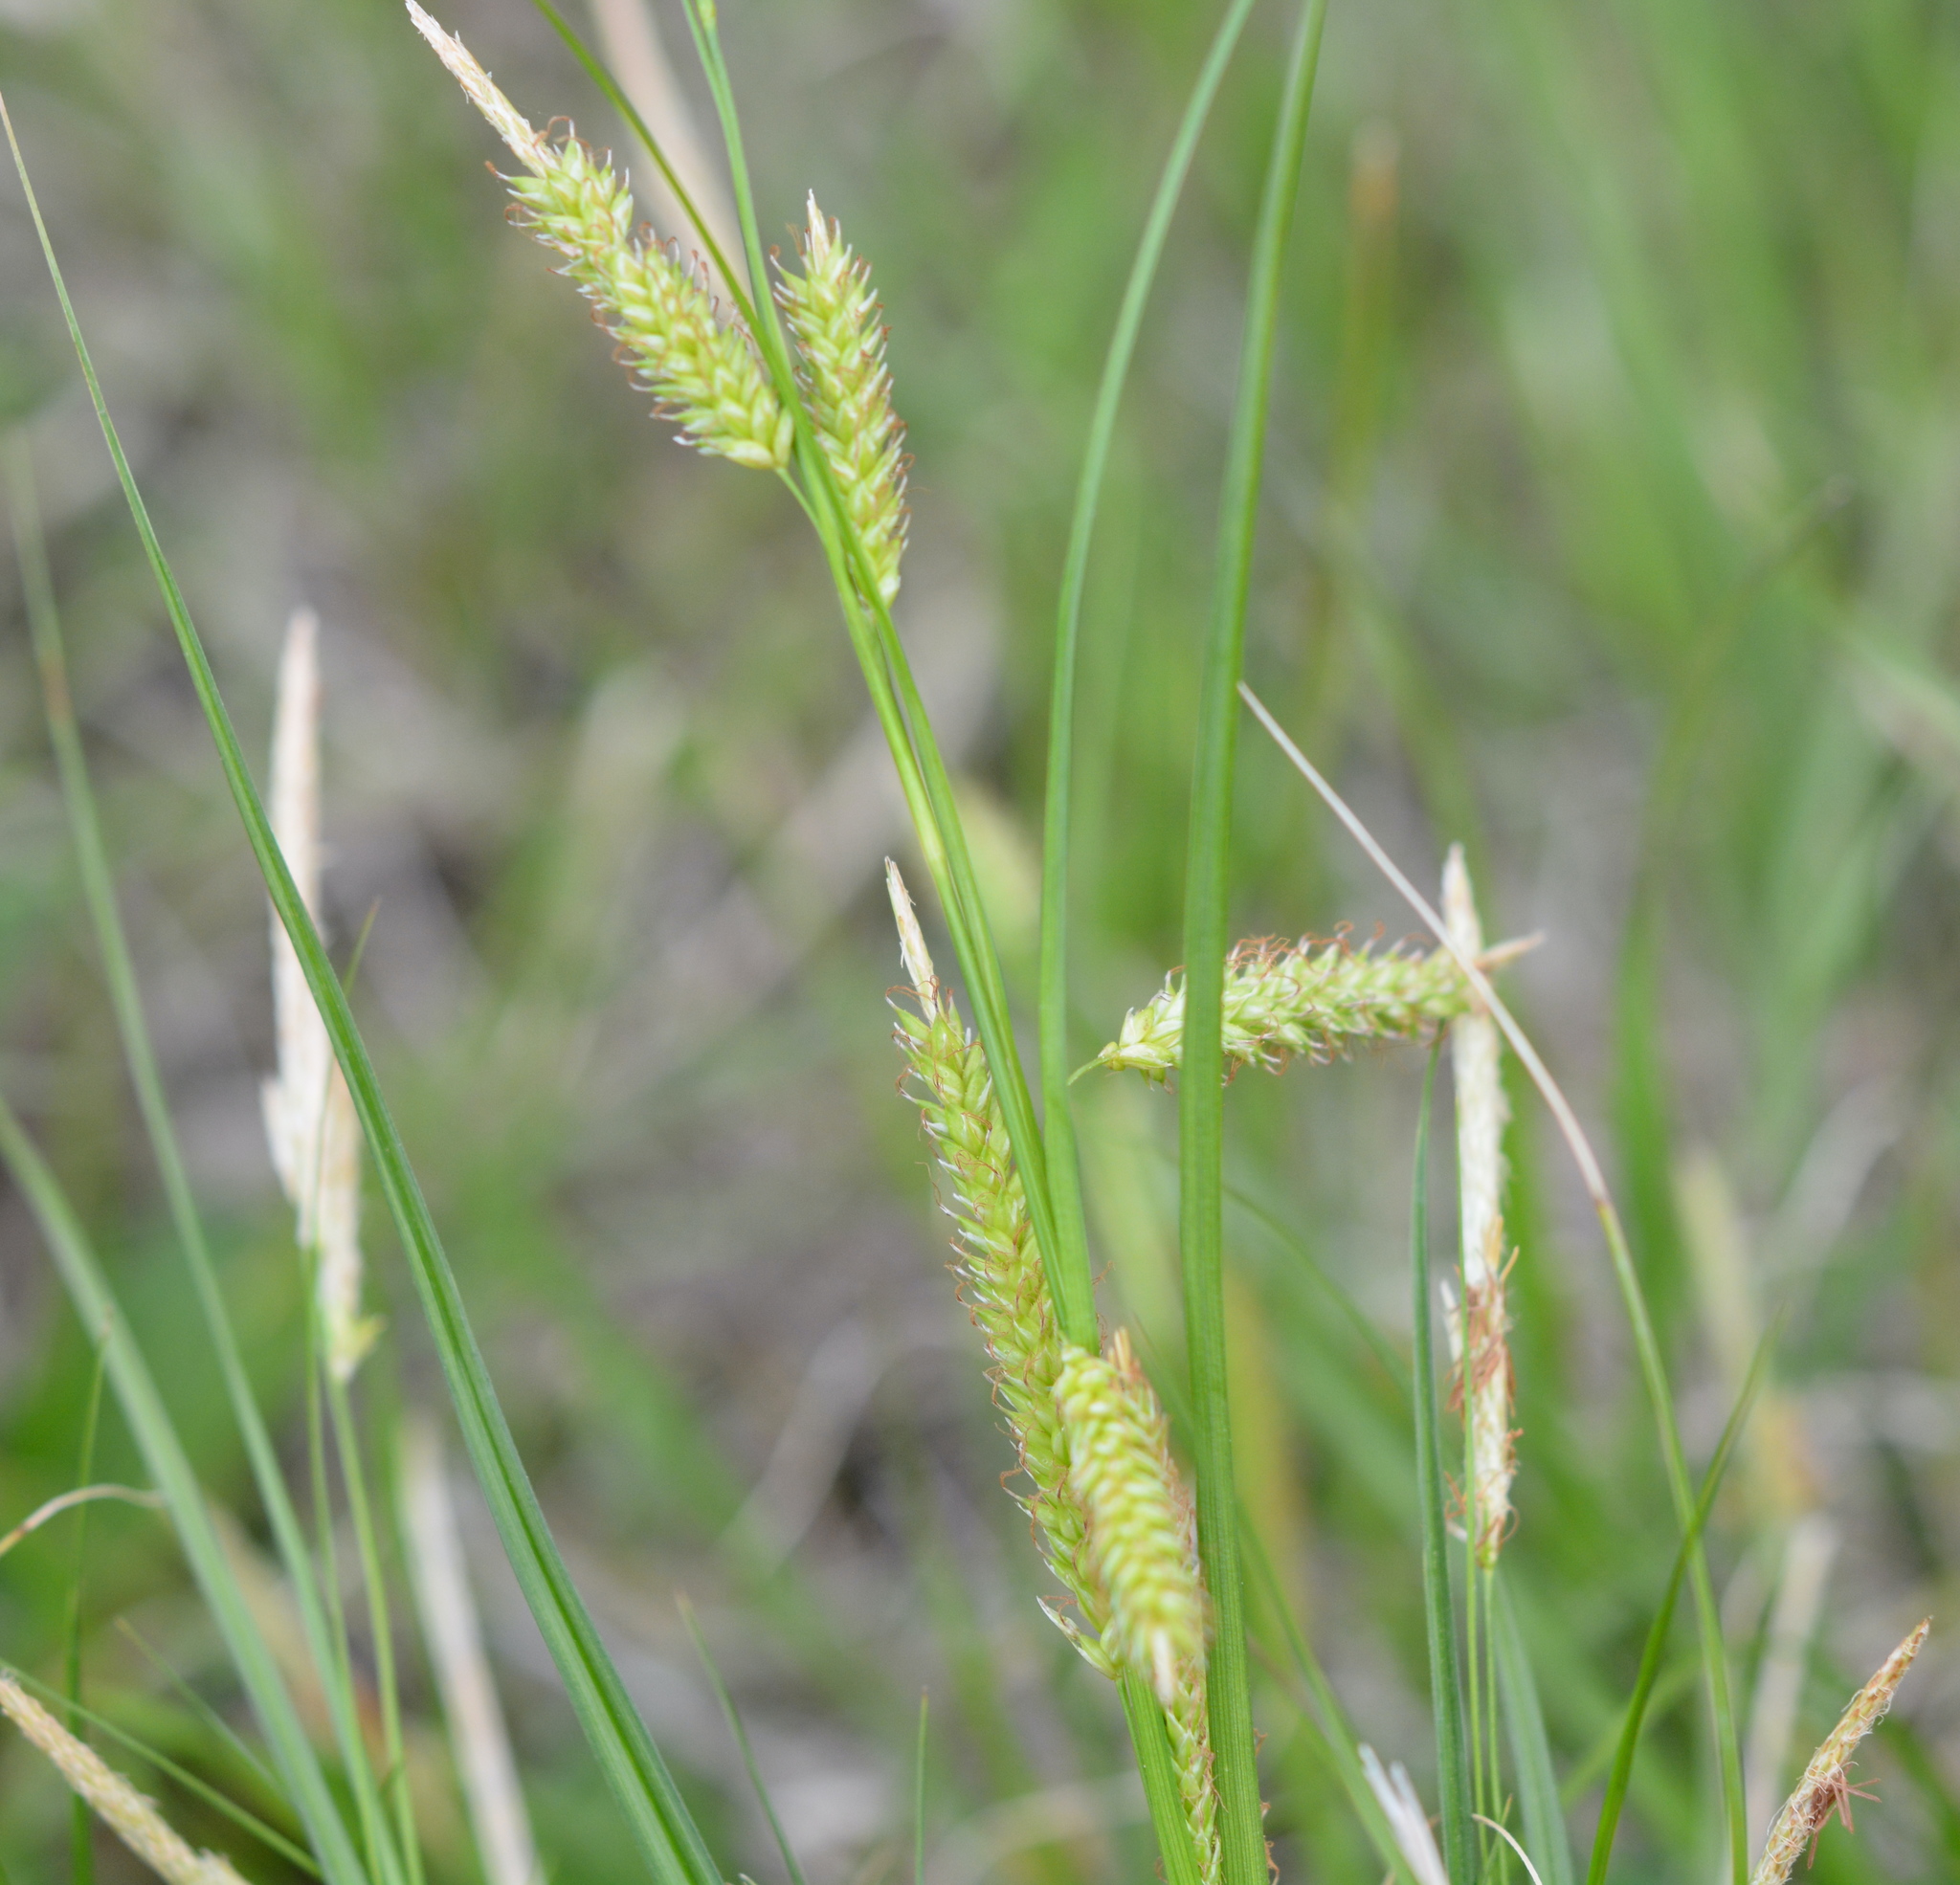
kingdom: Plantae
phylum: Tracheophyta
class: Liliopsida
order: Poales
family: Cyperaceae
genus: Carex
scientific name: Carex cherokeensis
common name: Cherokee sedge
